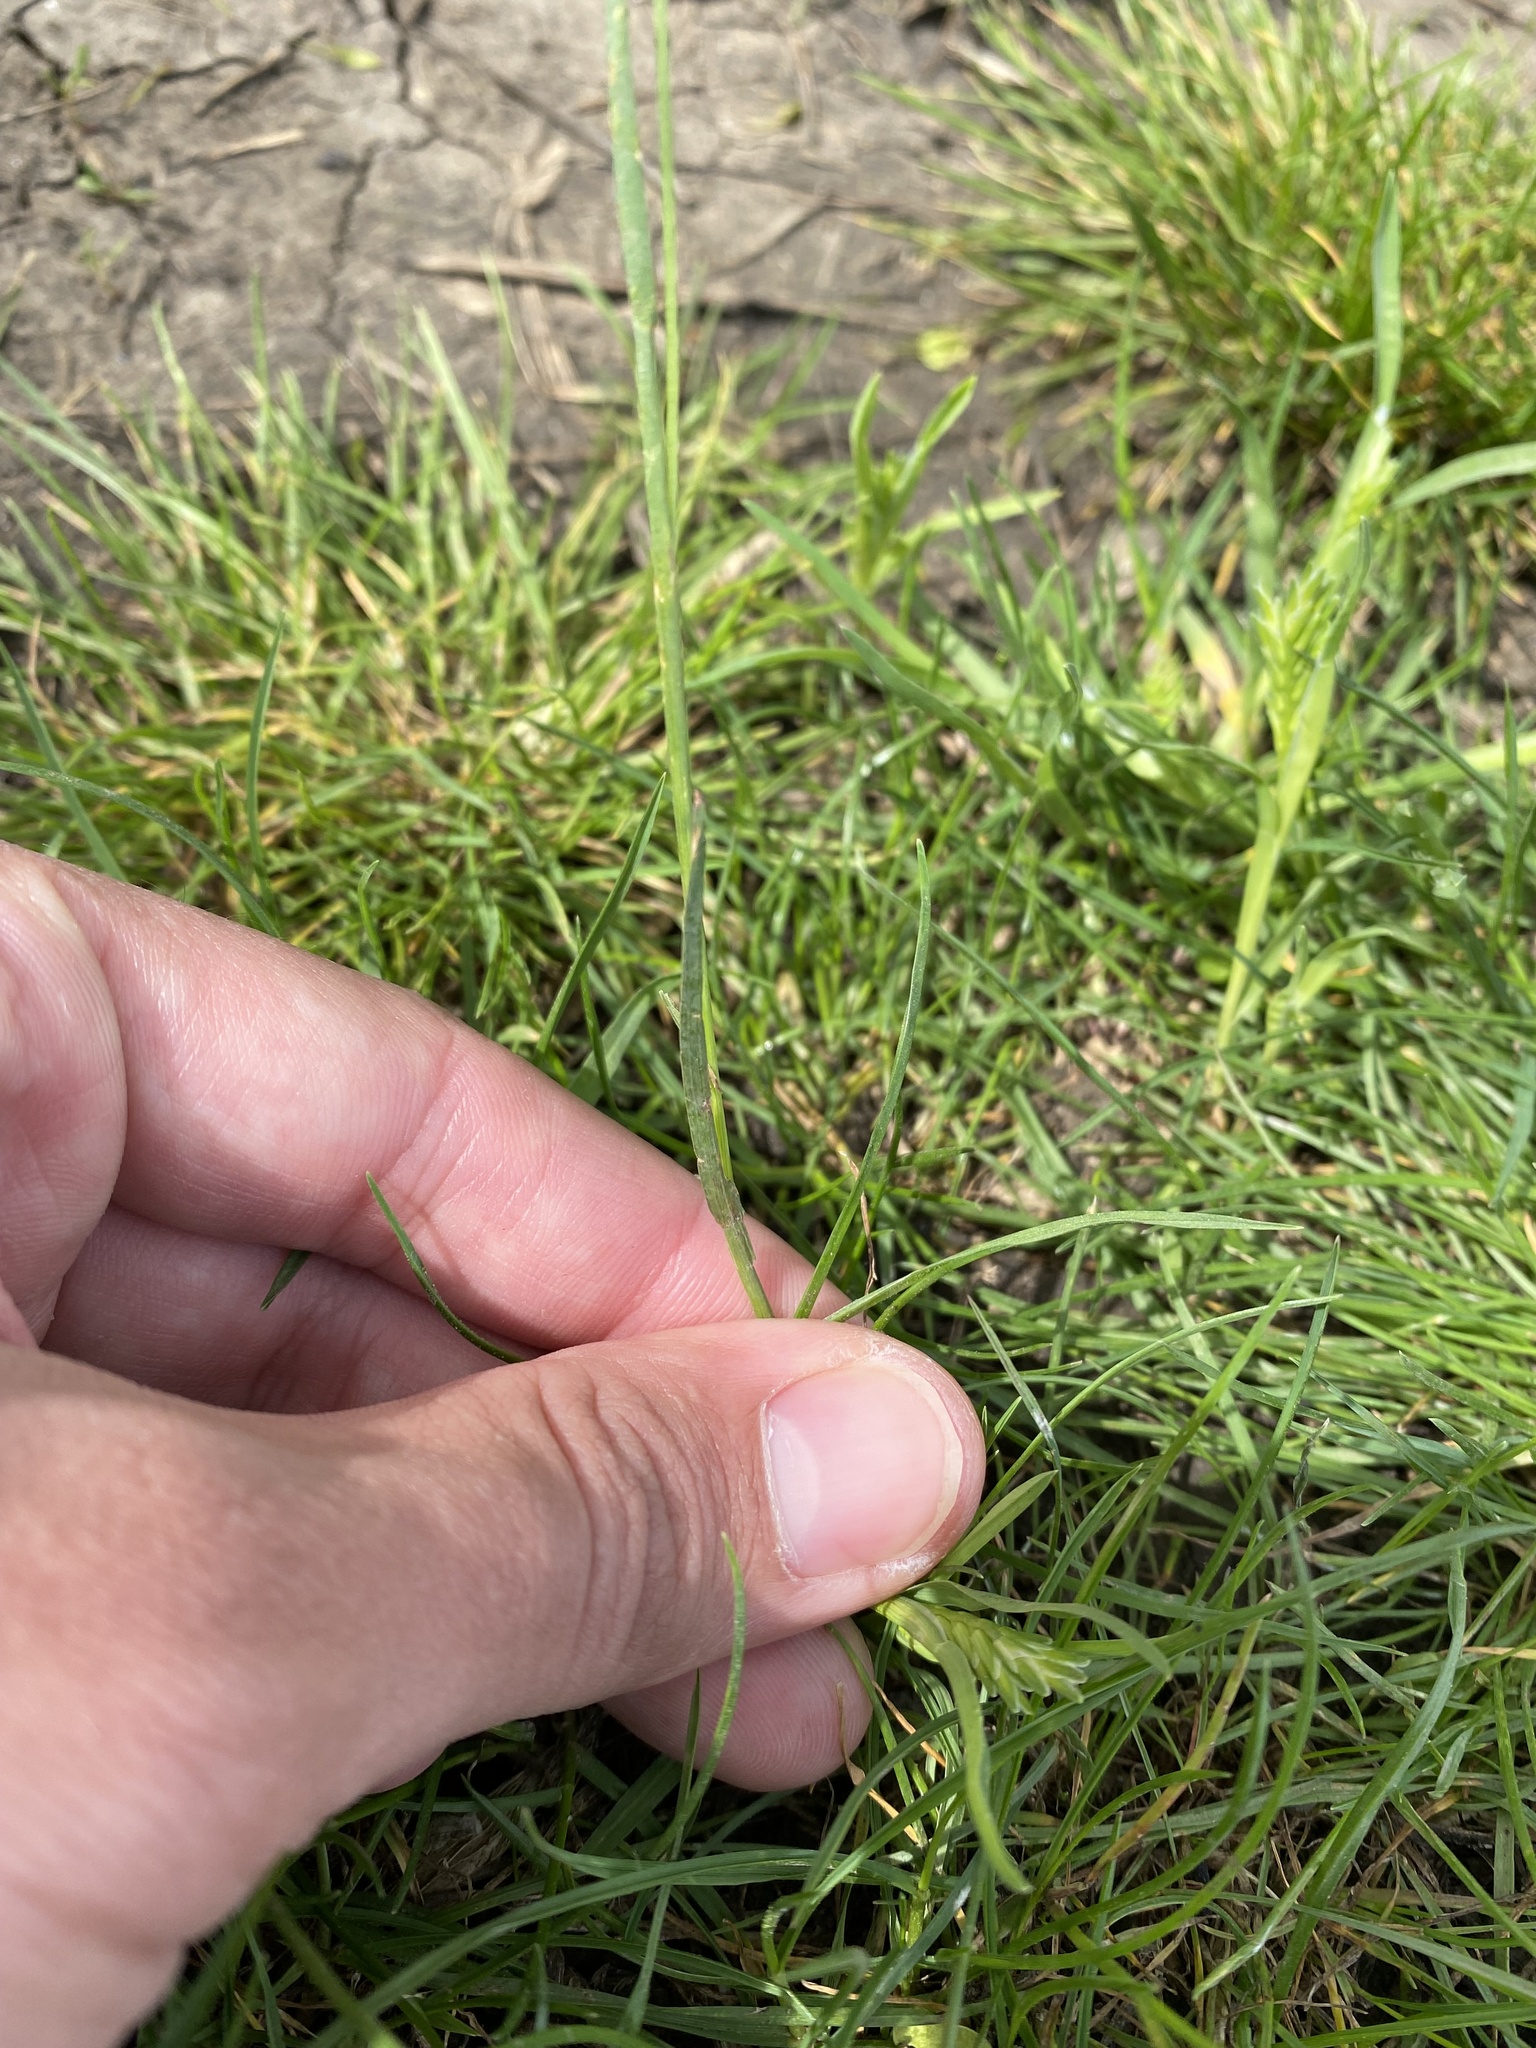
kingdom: Plantae
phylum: Tracheophyta
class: Liliopsida
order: Poales
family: Poaceae
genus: Poa
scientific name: Poa bulbosa
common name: Bulbous bluegrass
